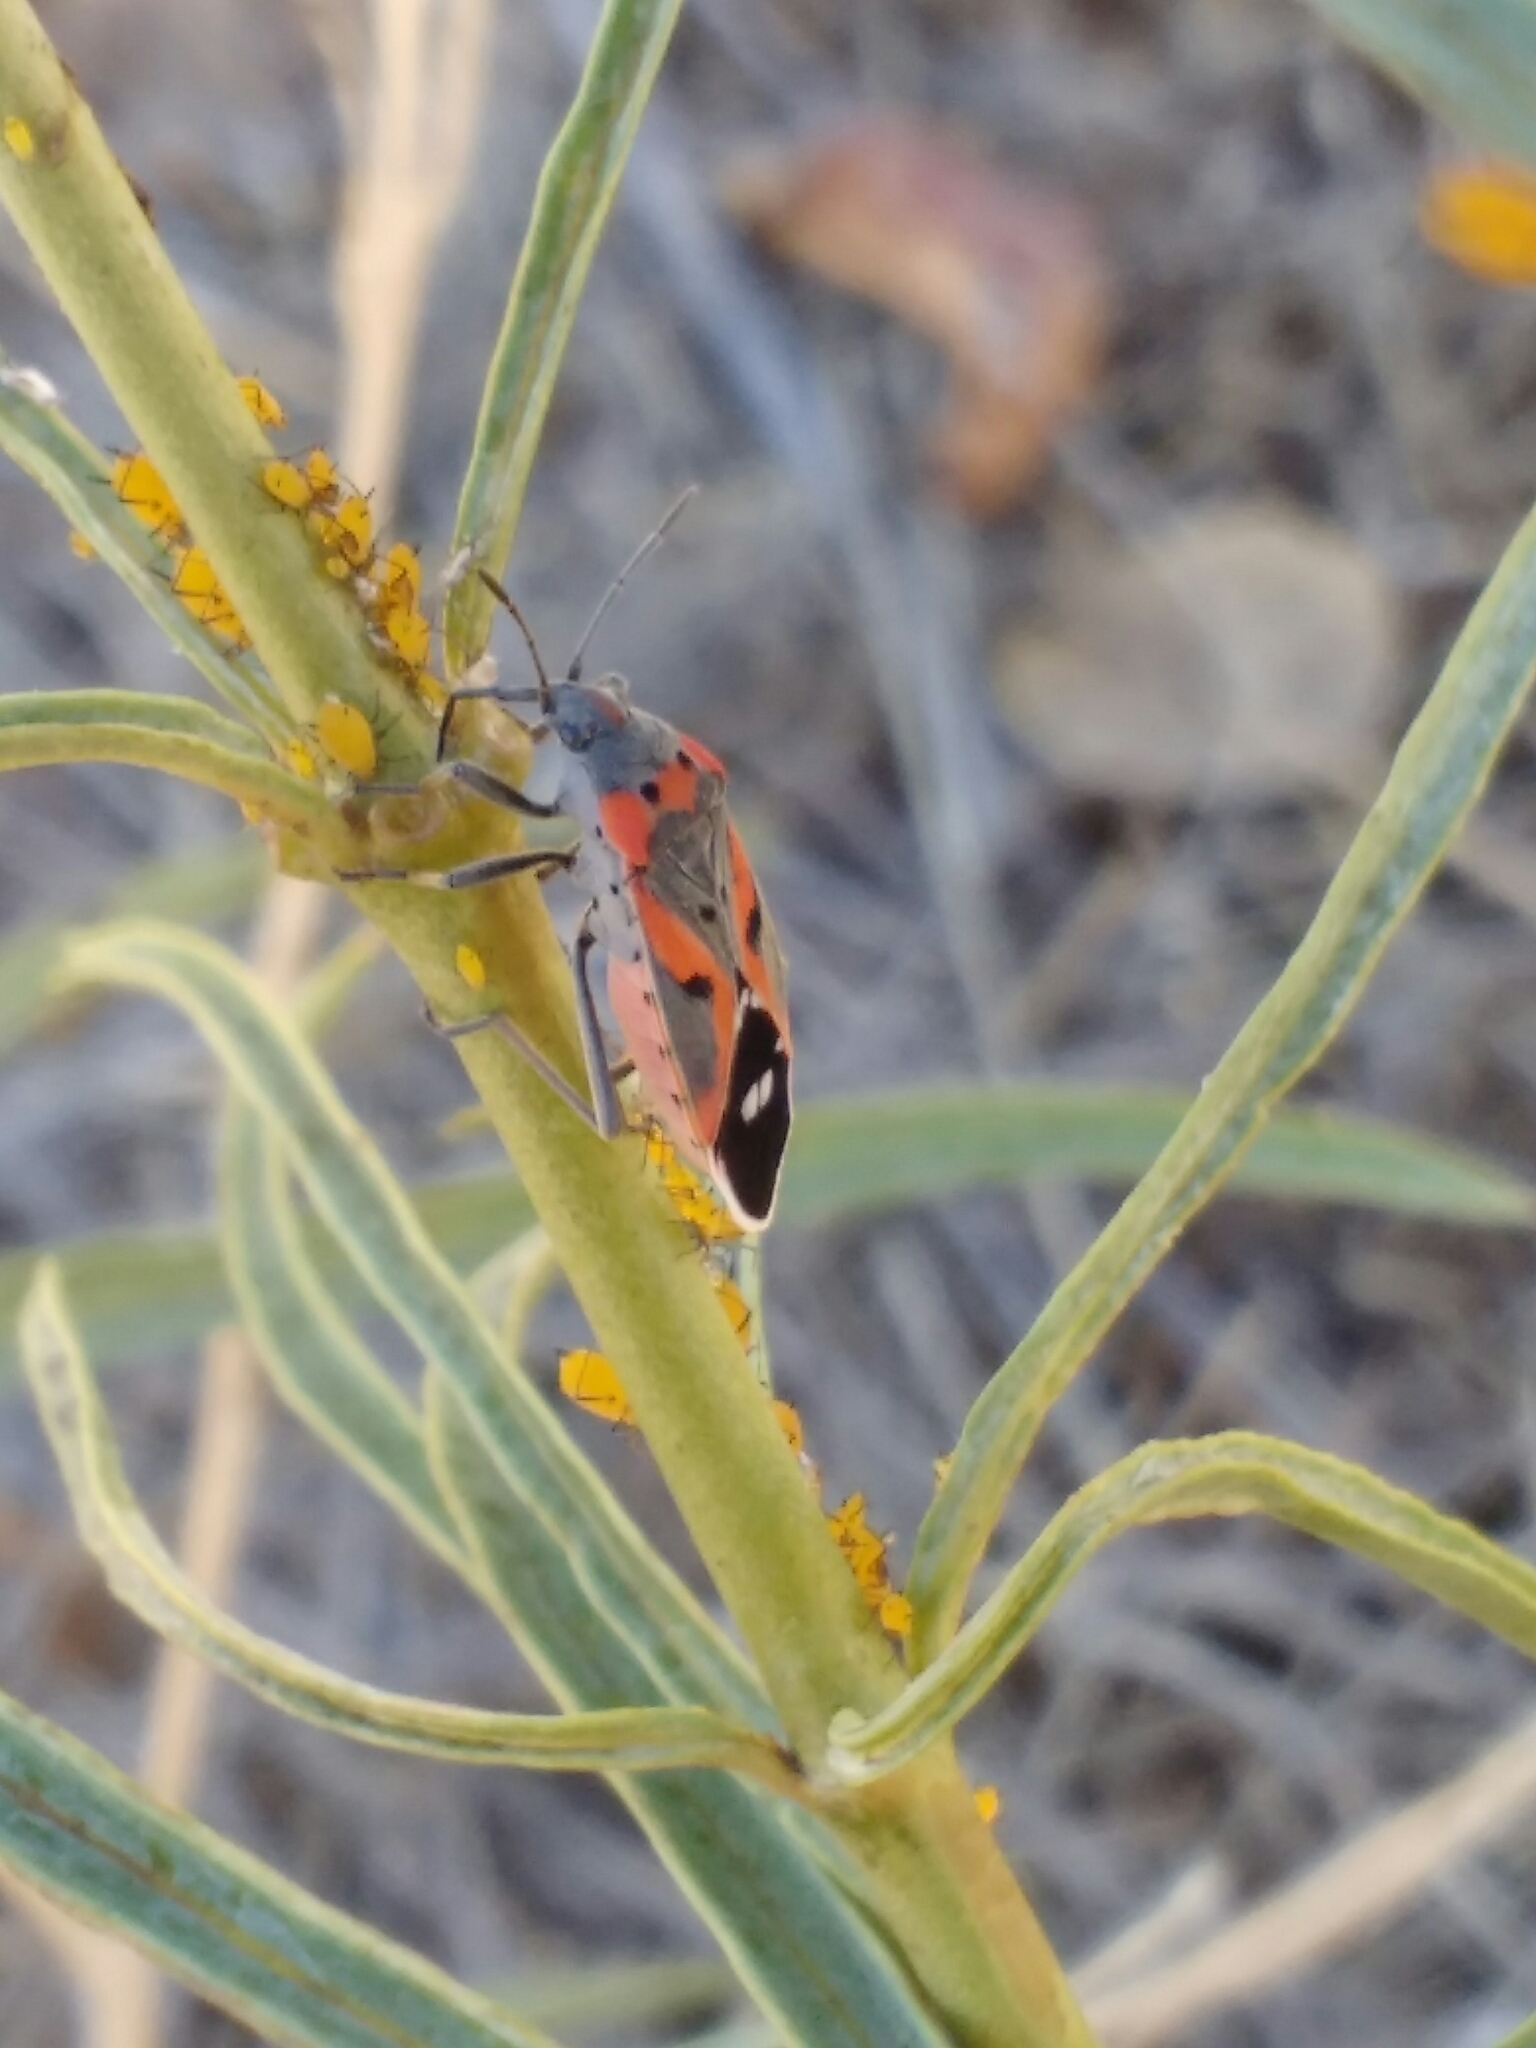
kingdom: Animalia
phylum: Arthropoda
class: Insecta
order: Hemiptera
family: Lygaeidae
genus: Lygaeus
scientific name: Lygaeus kalmii
